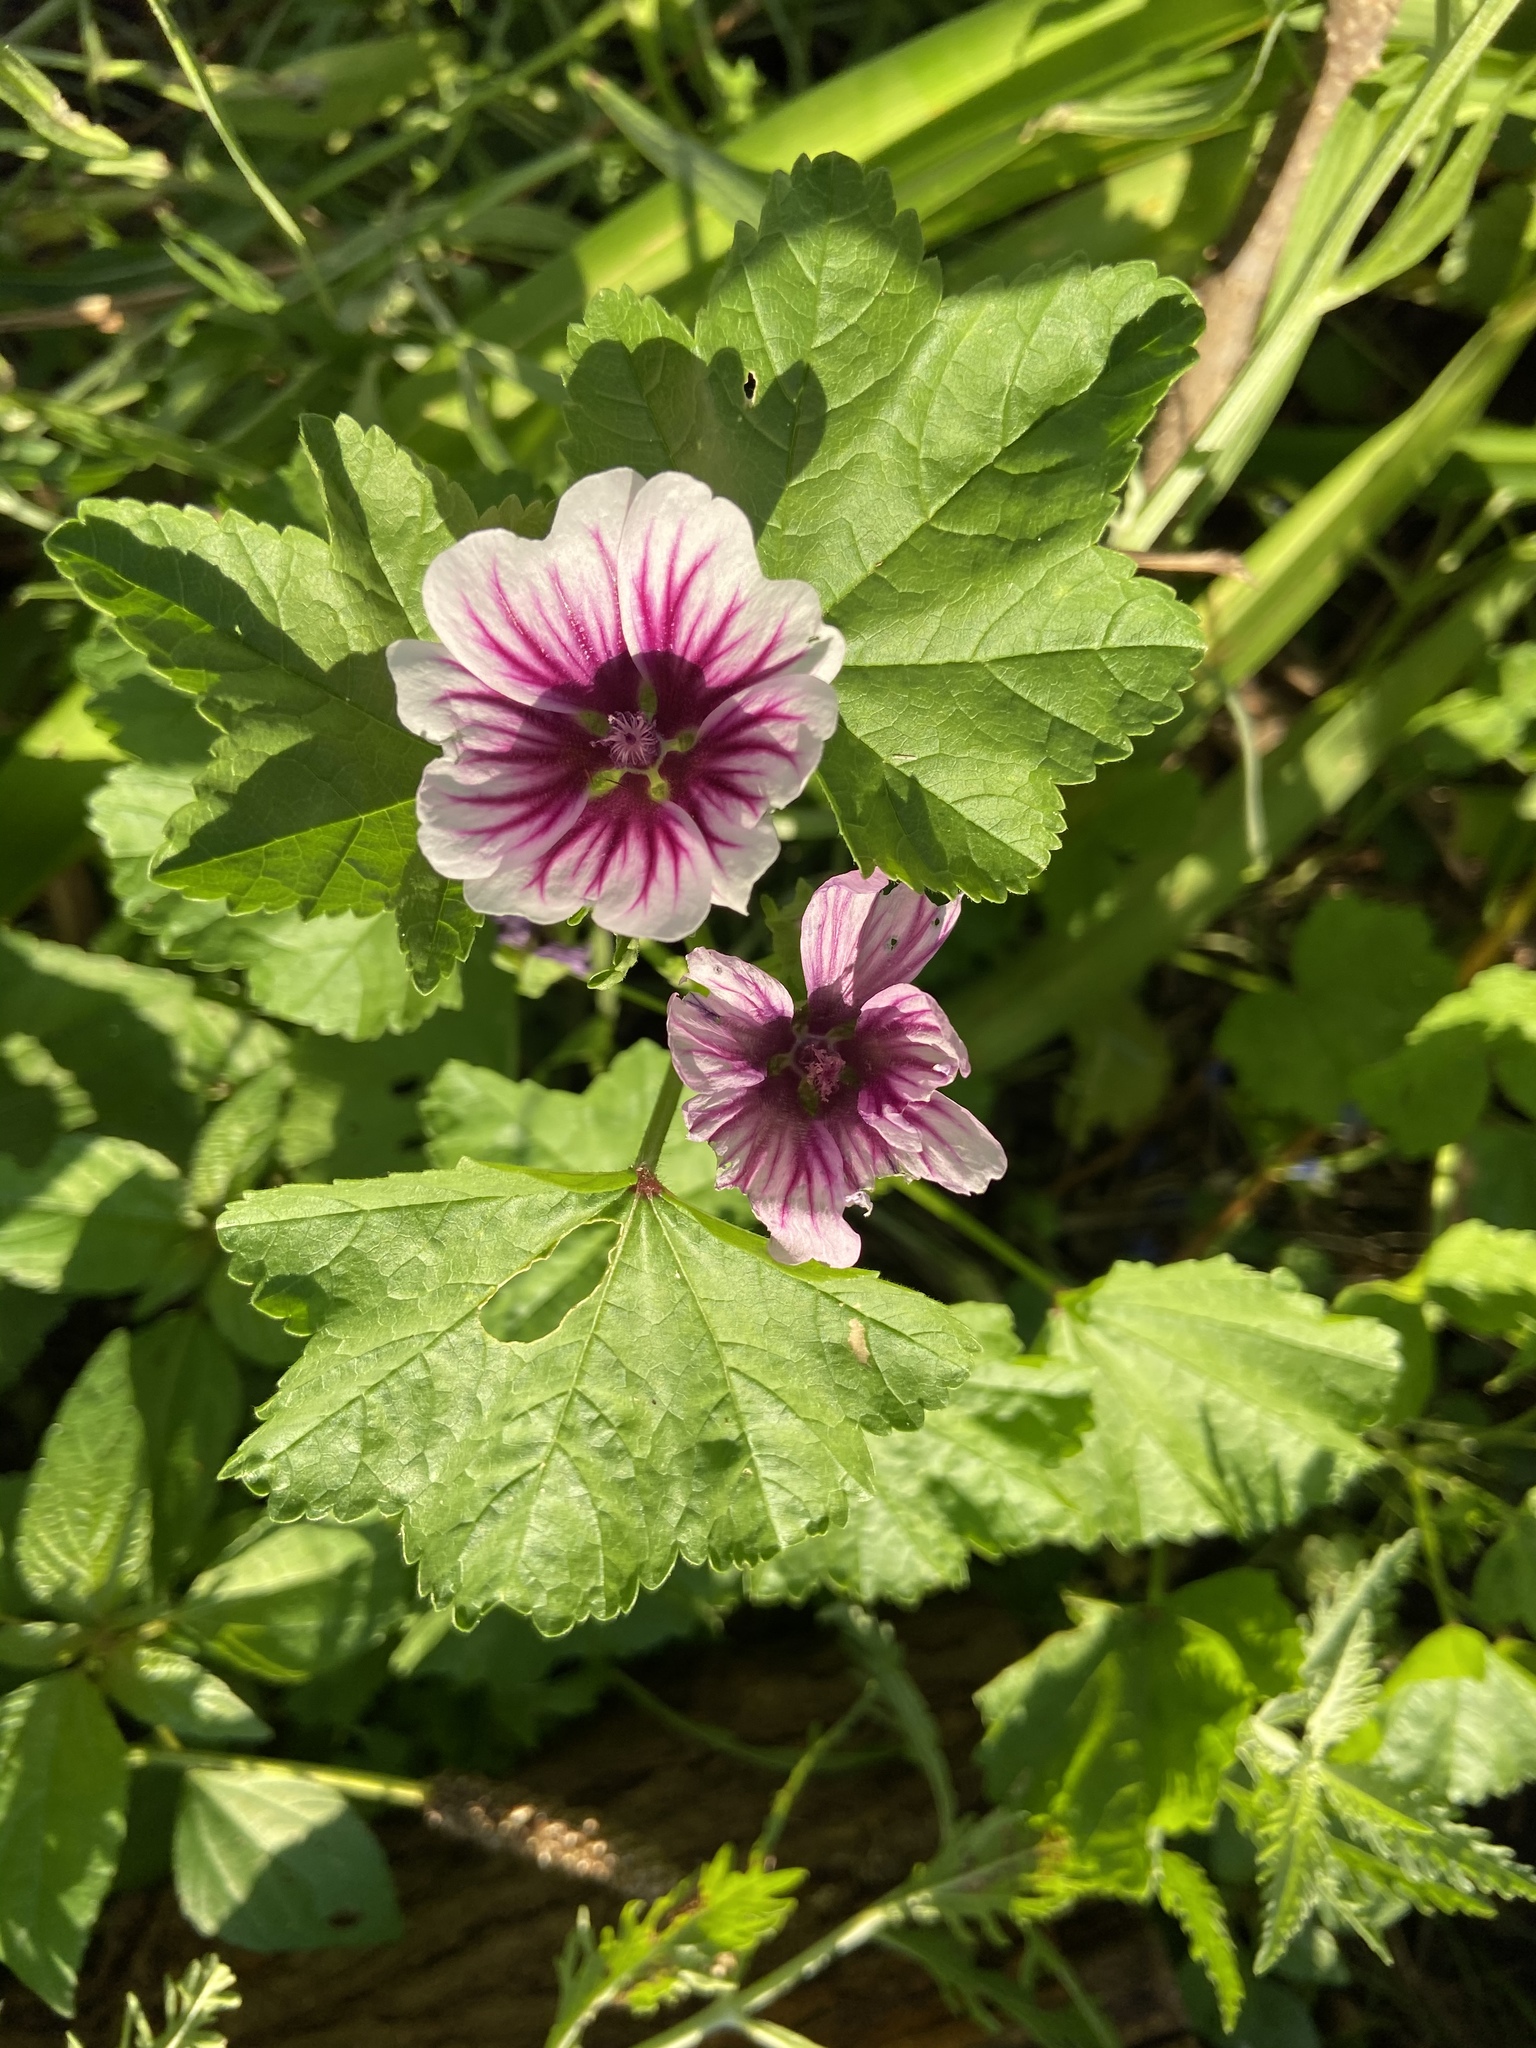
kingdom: Plantae
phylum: Tracheophyta
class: Magnoliopsida
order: Malvales
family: Malvaceae
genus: Malva
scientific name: Malva sylvestris
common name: Common mallow
